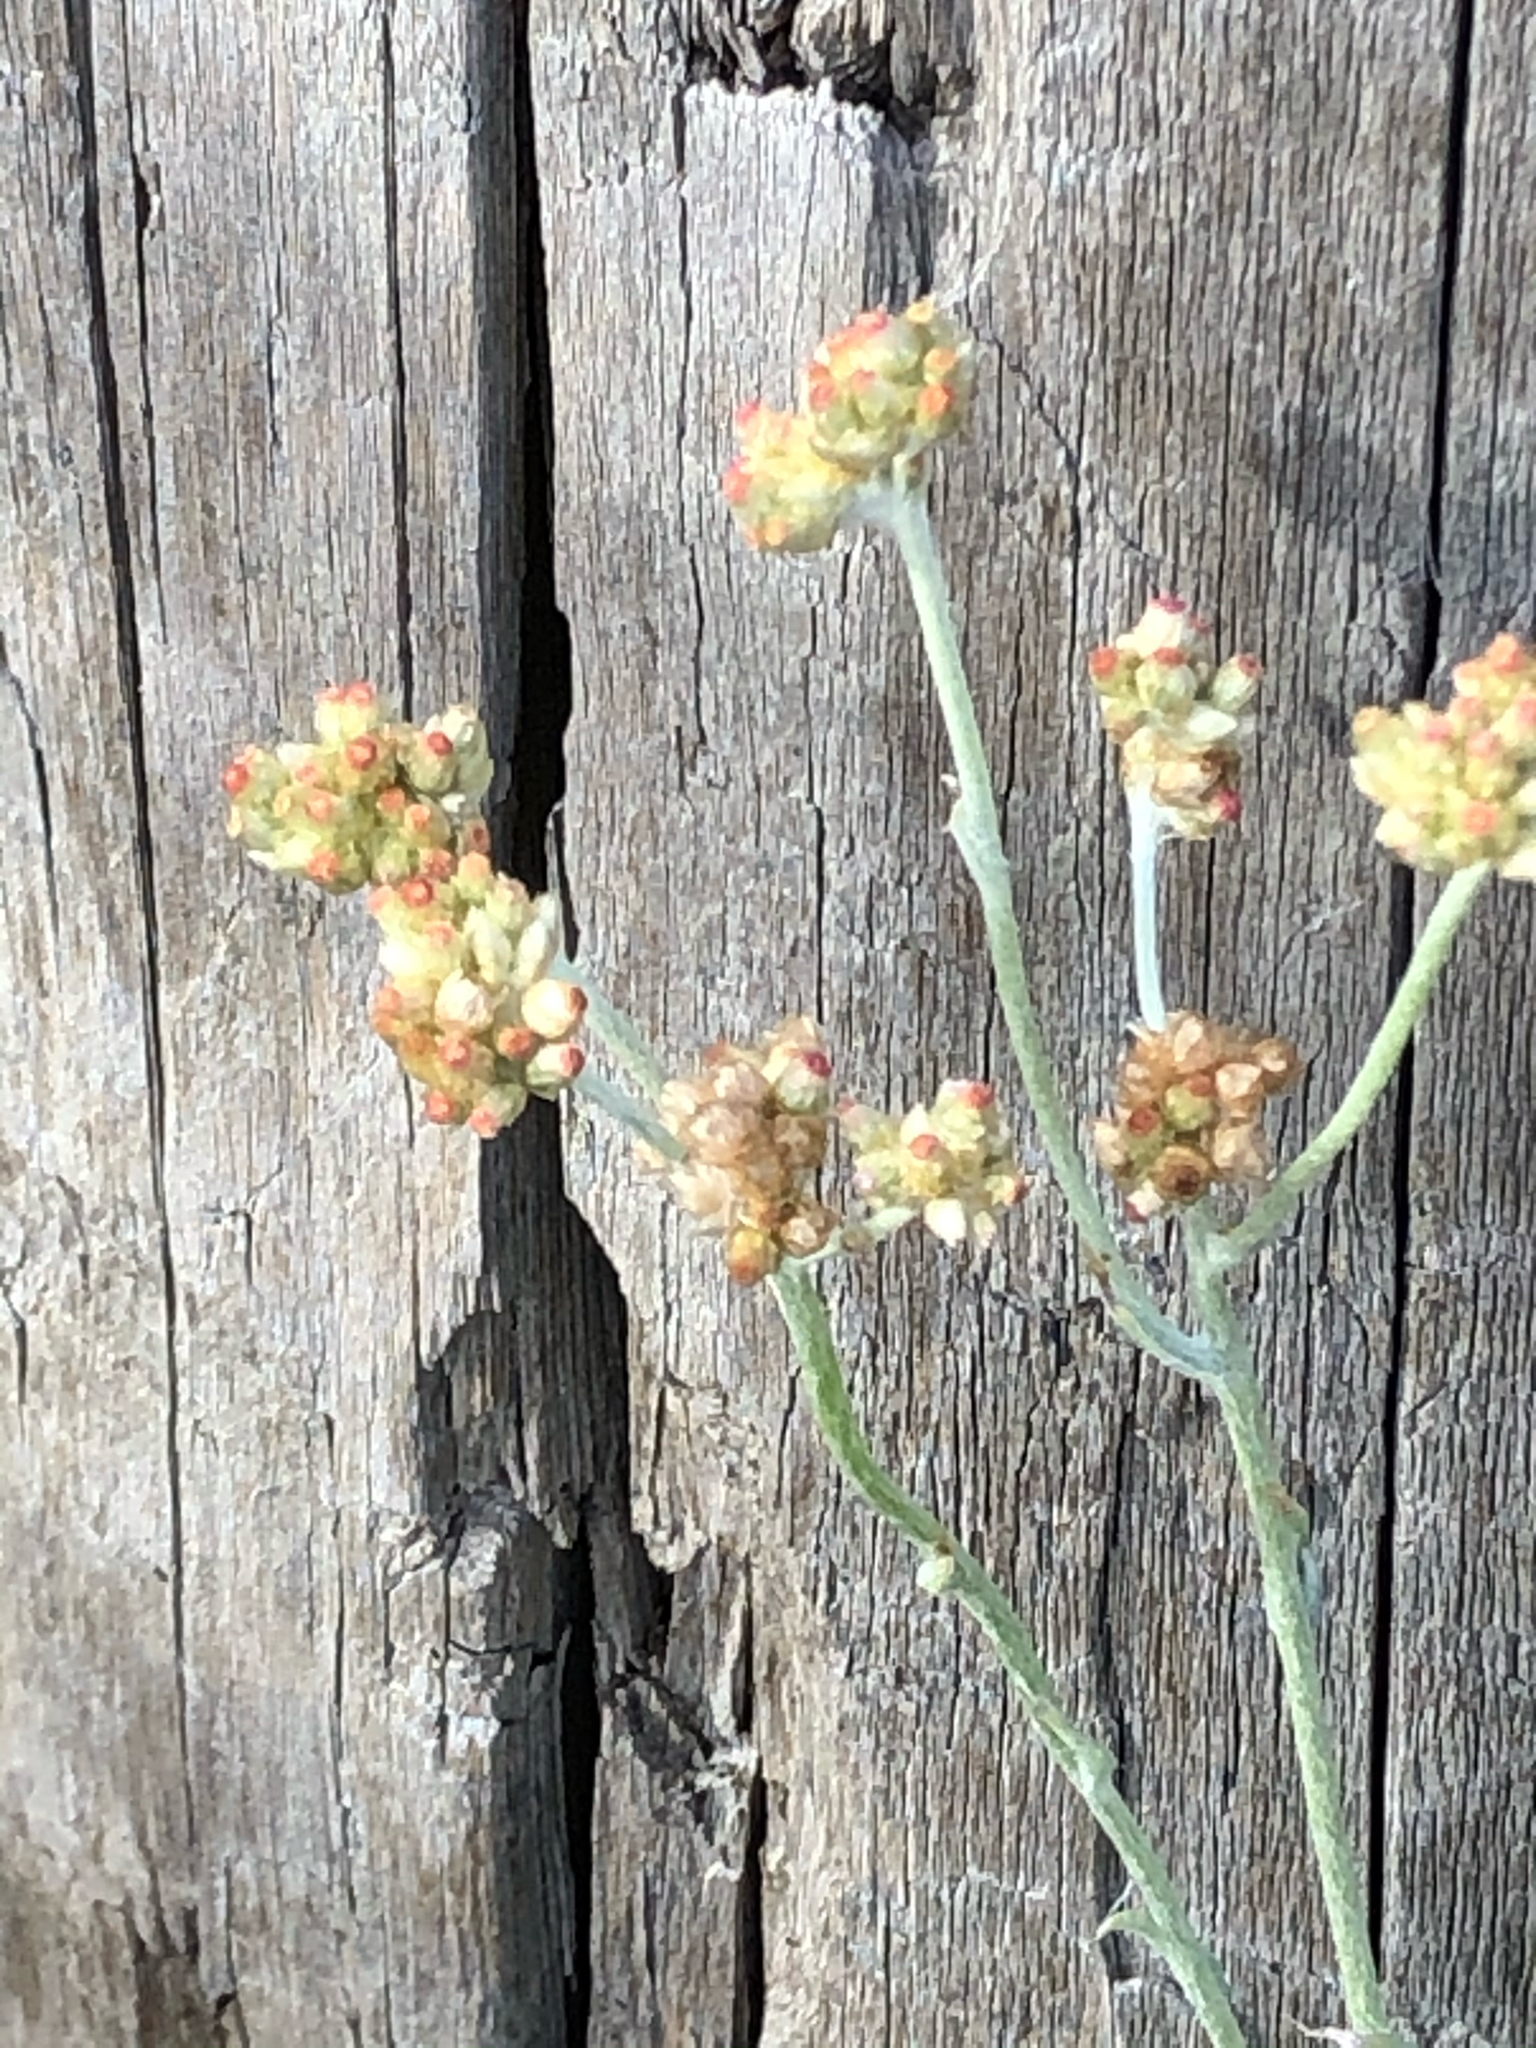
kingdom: Plantae
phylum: Tracheophyta
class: Magnoliopsida
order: Asterales
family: Asteraceae
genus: Helichrysum
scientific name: Helichrysum luteoalbum
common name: Daisy
